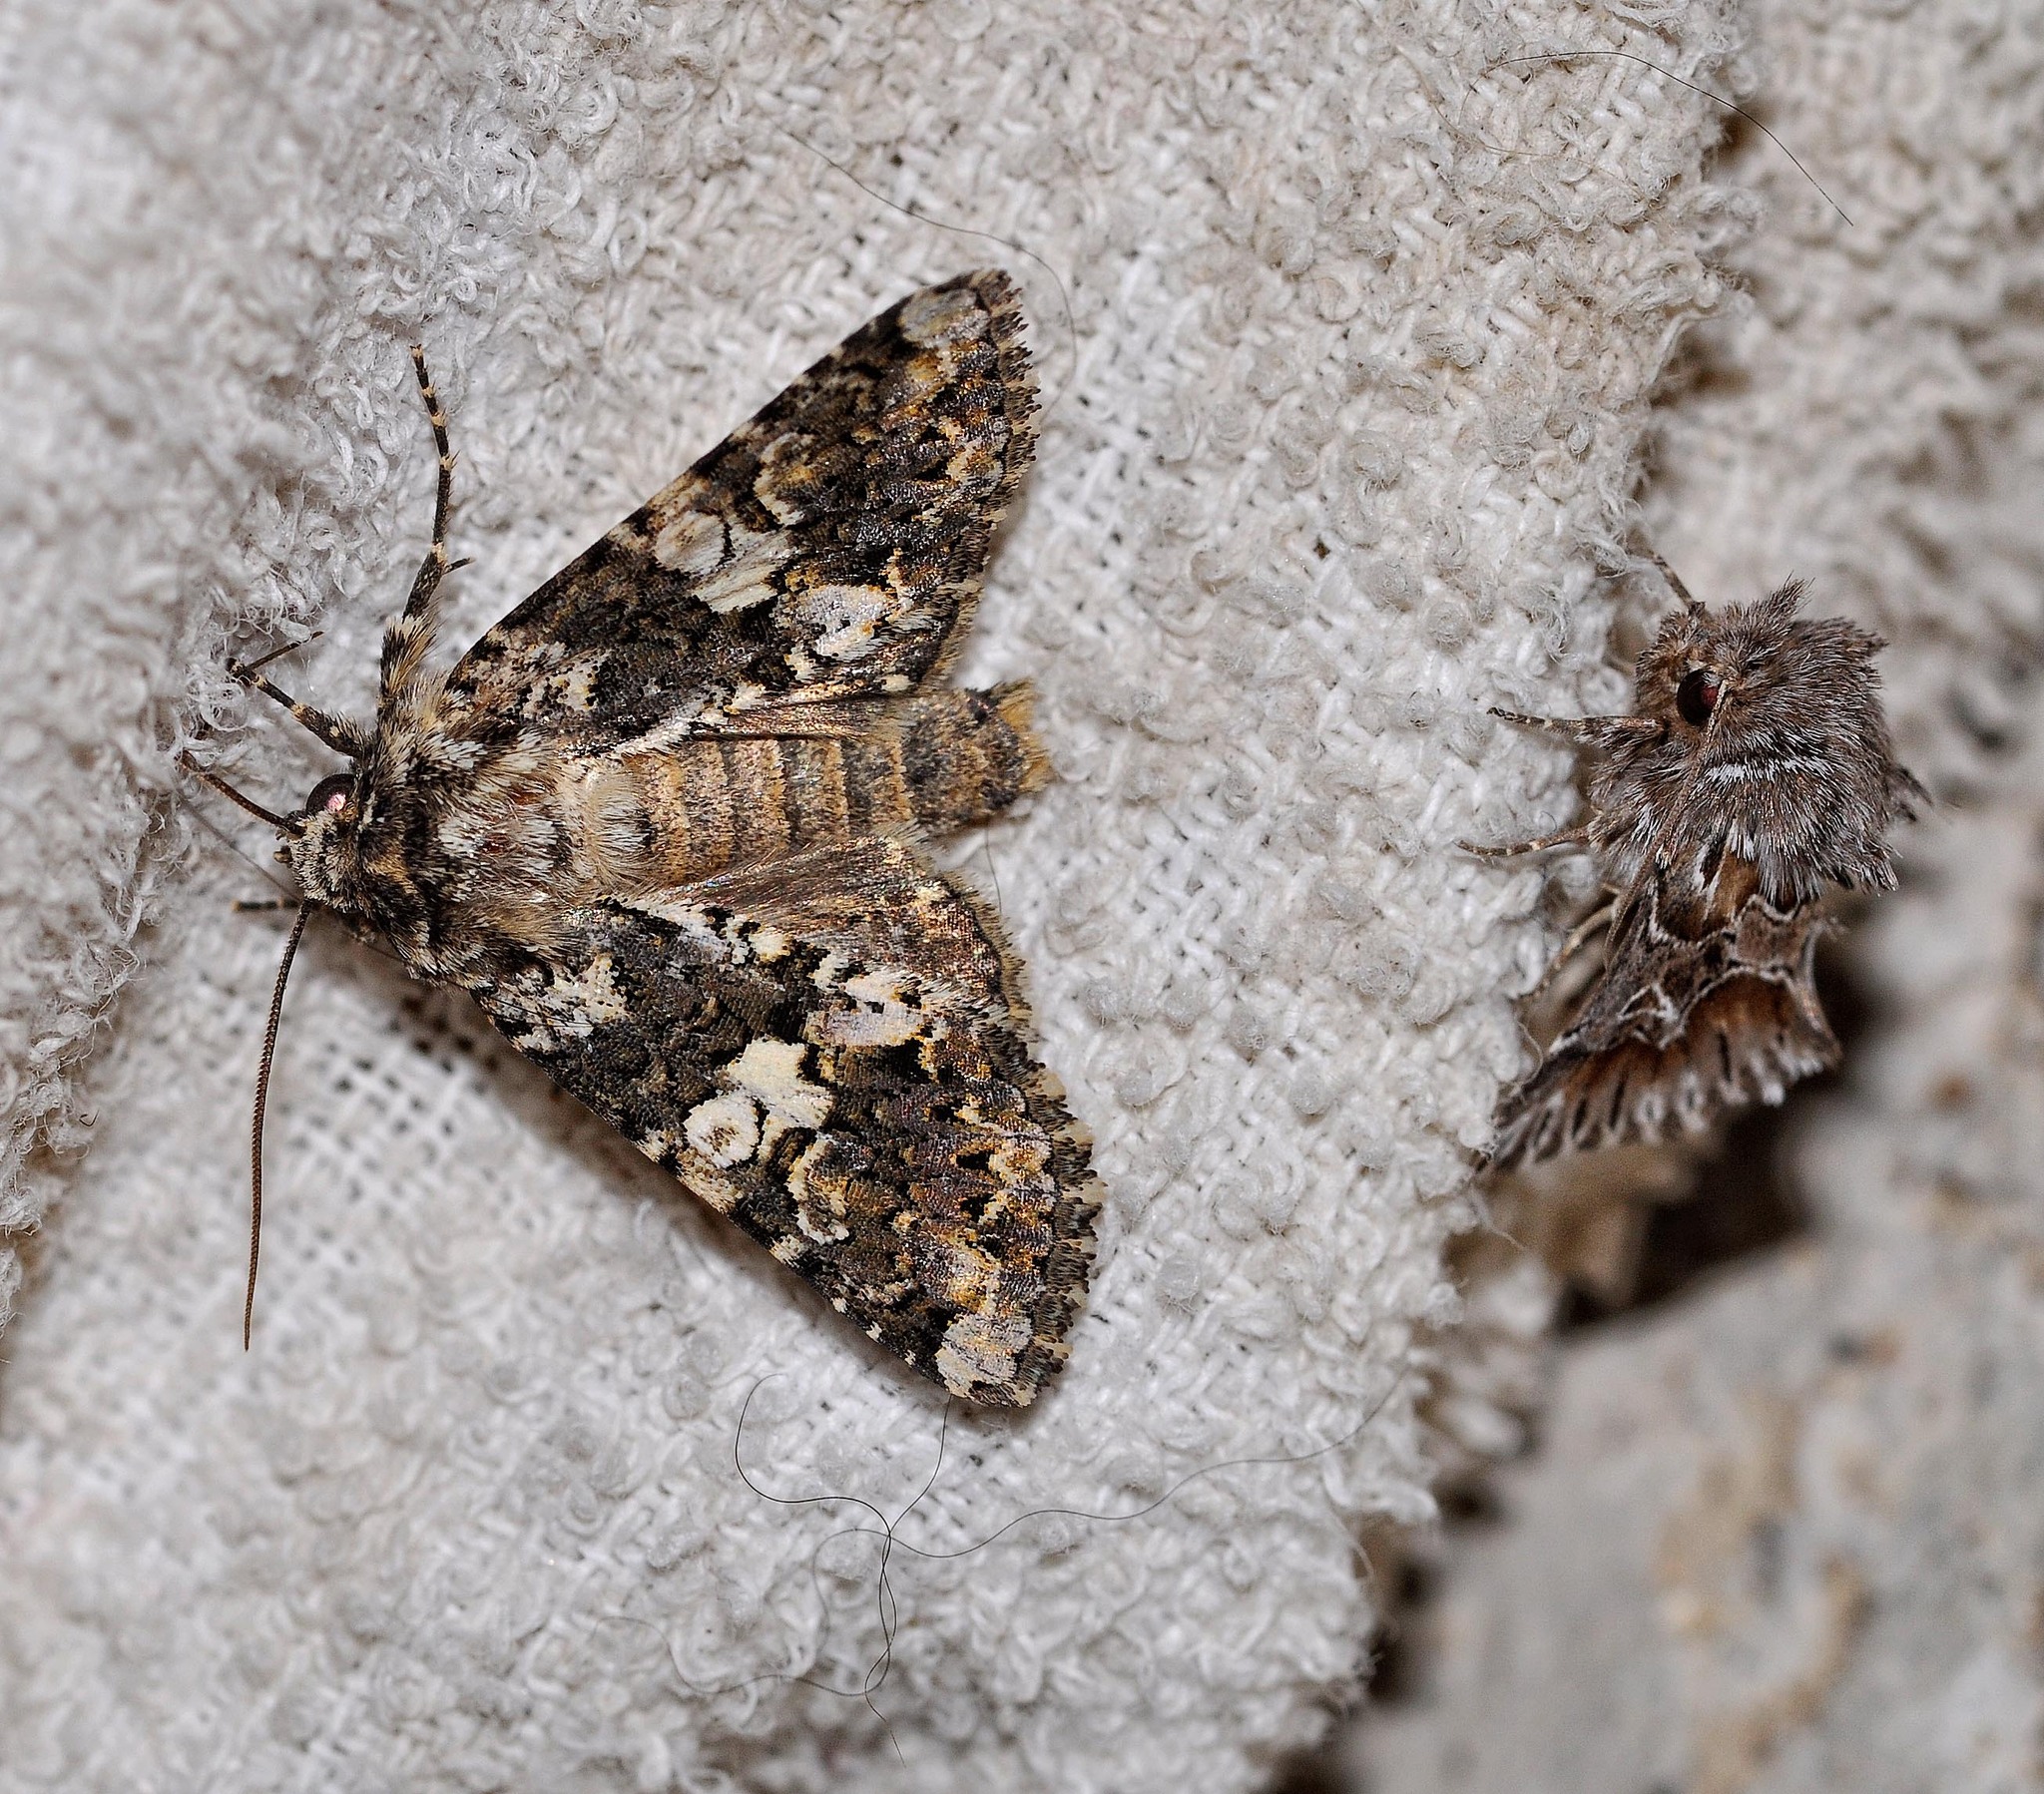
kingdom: Animalia
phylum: Arthropoda
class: Insecta
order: Lepidoptera
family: Noctuidae
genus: Hadena
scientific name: Hadena confusa
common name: Marbled coronet
